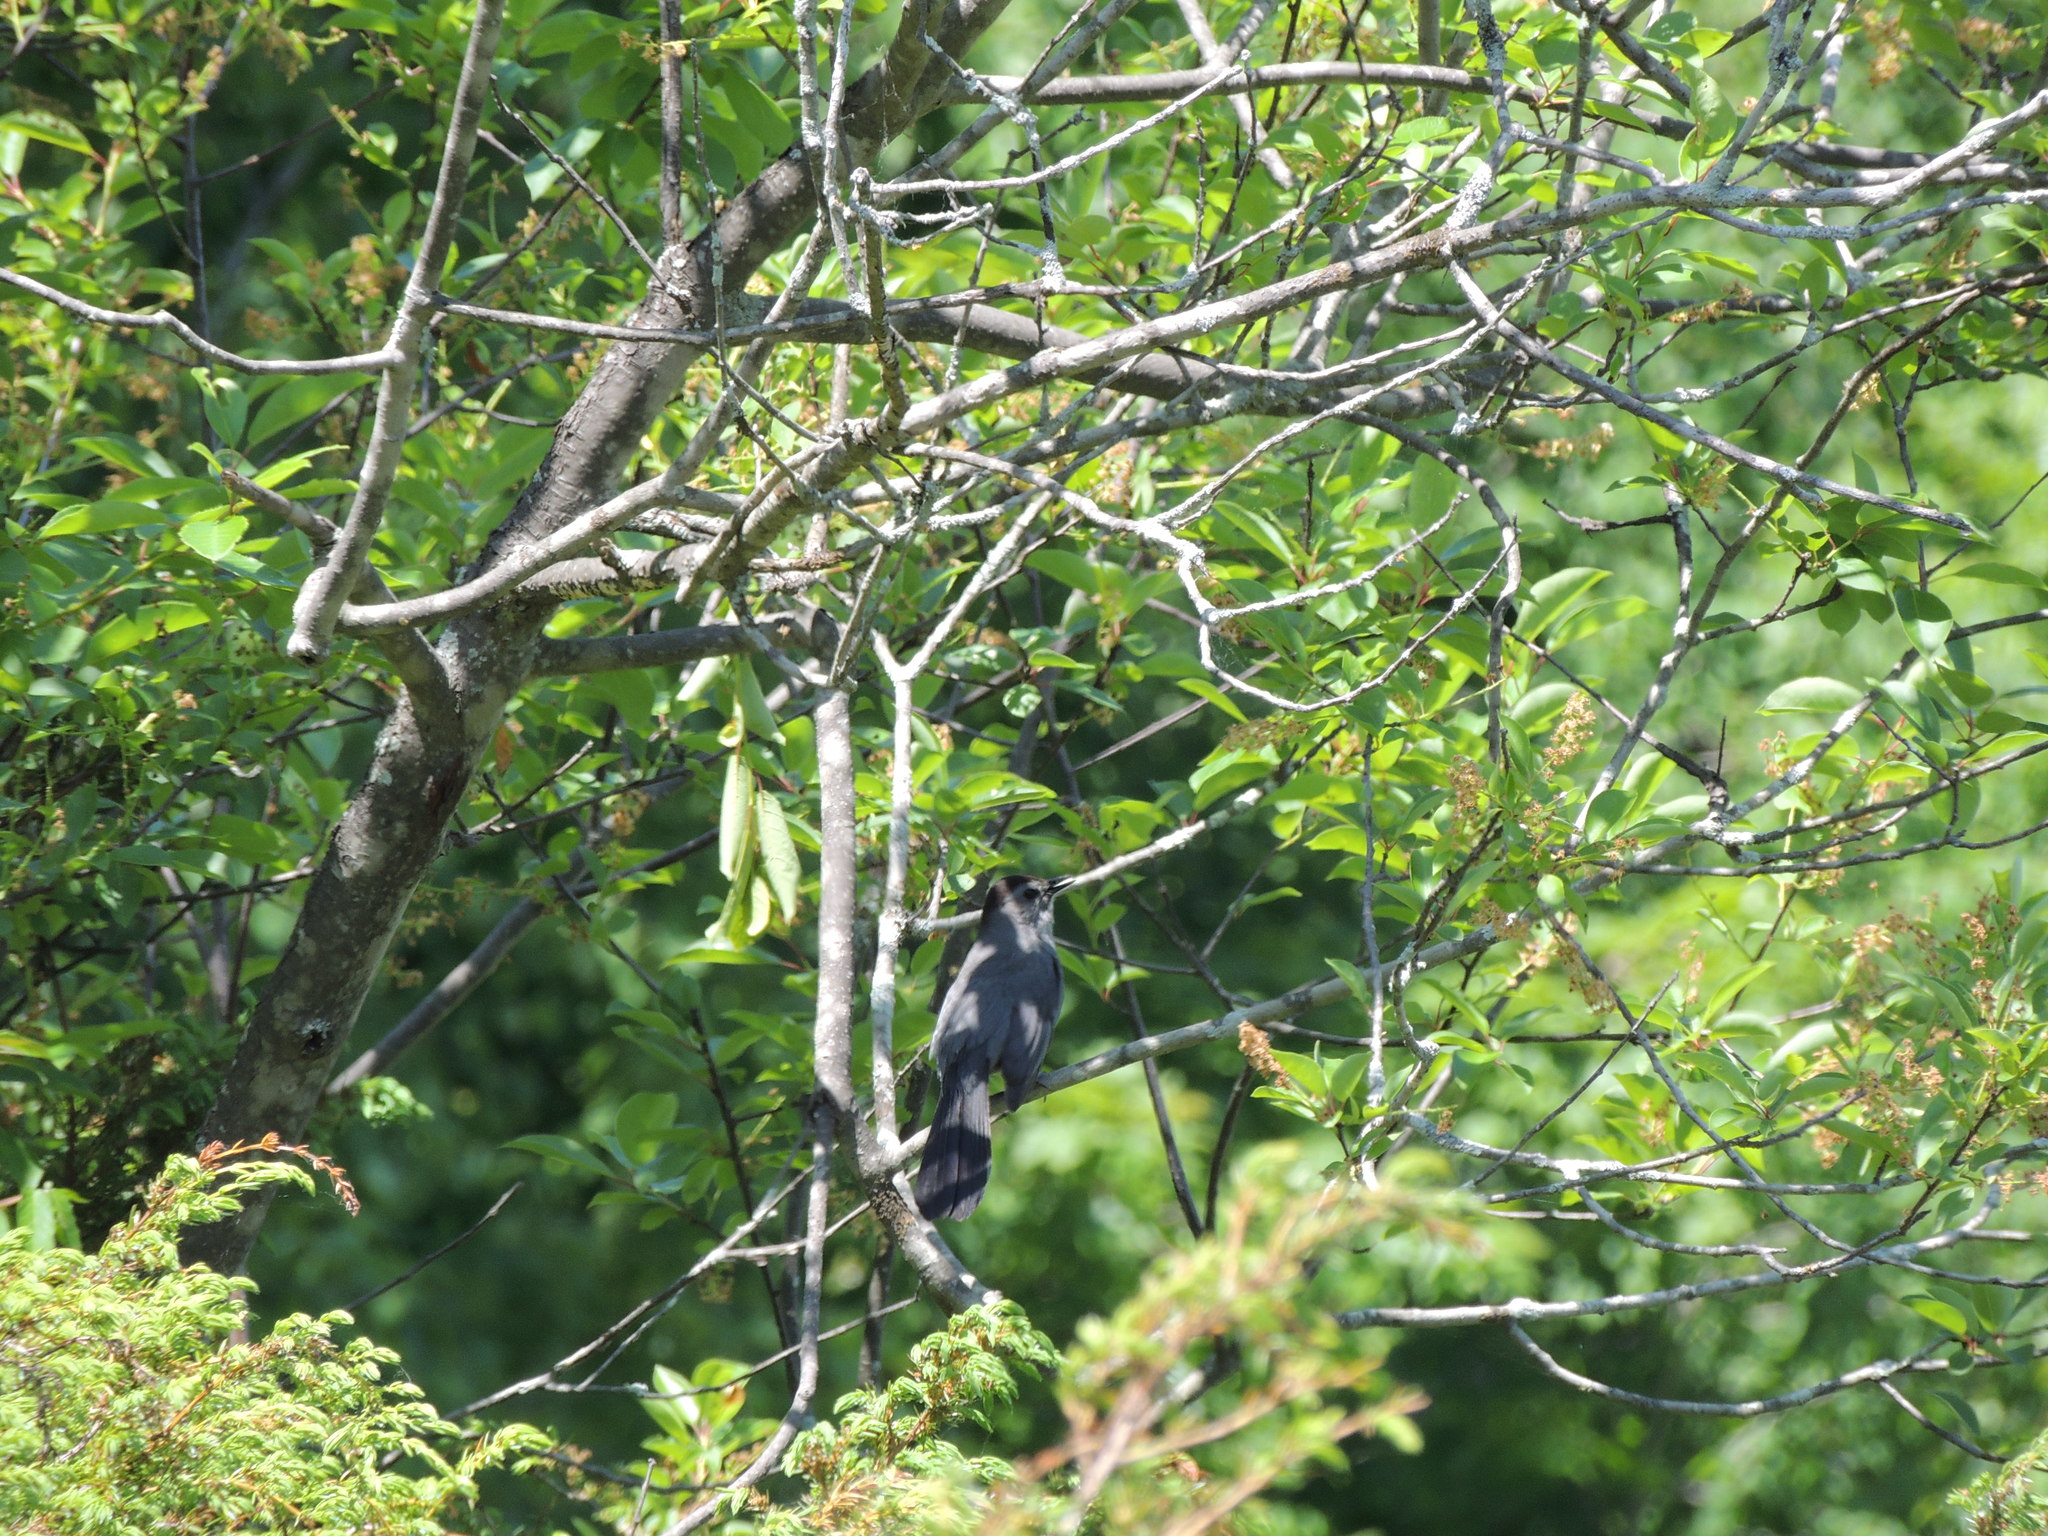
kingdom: Animalia
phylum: Chordata
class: Aves
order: Passeriformes
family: Mimidae
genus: Dumetella
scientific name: Dumetella carolinensis
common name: Gray catbird
